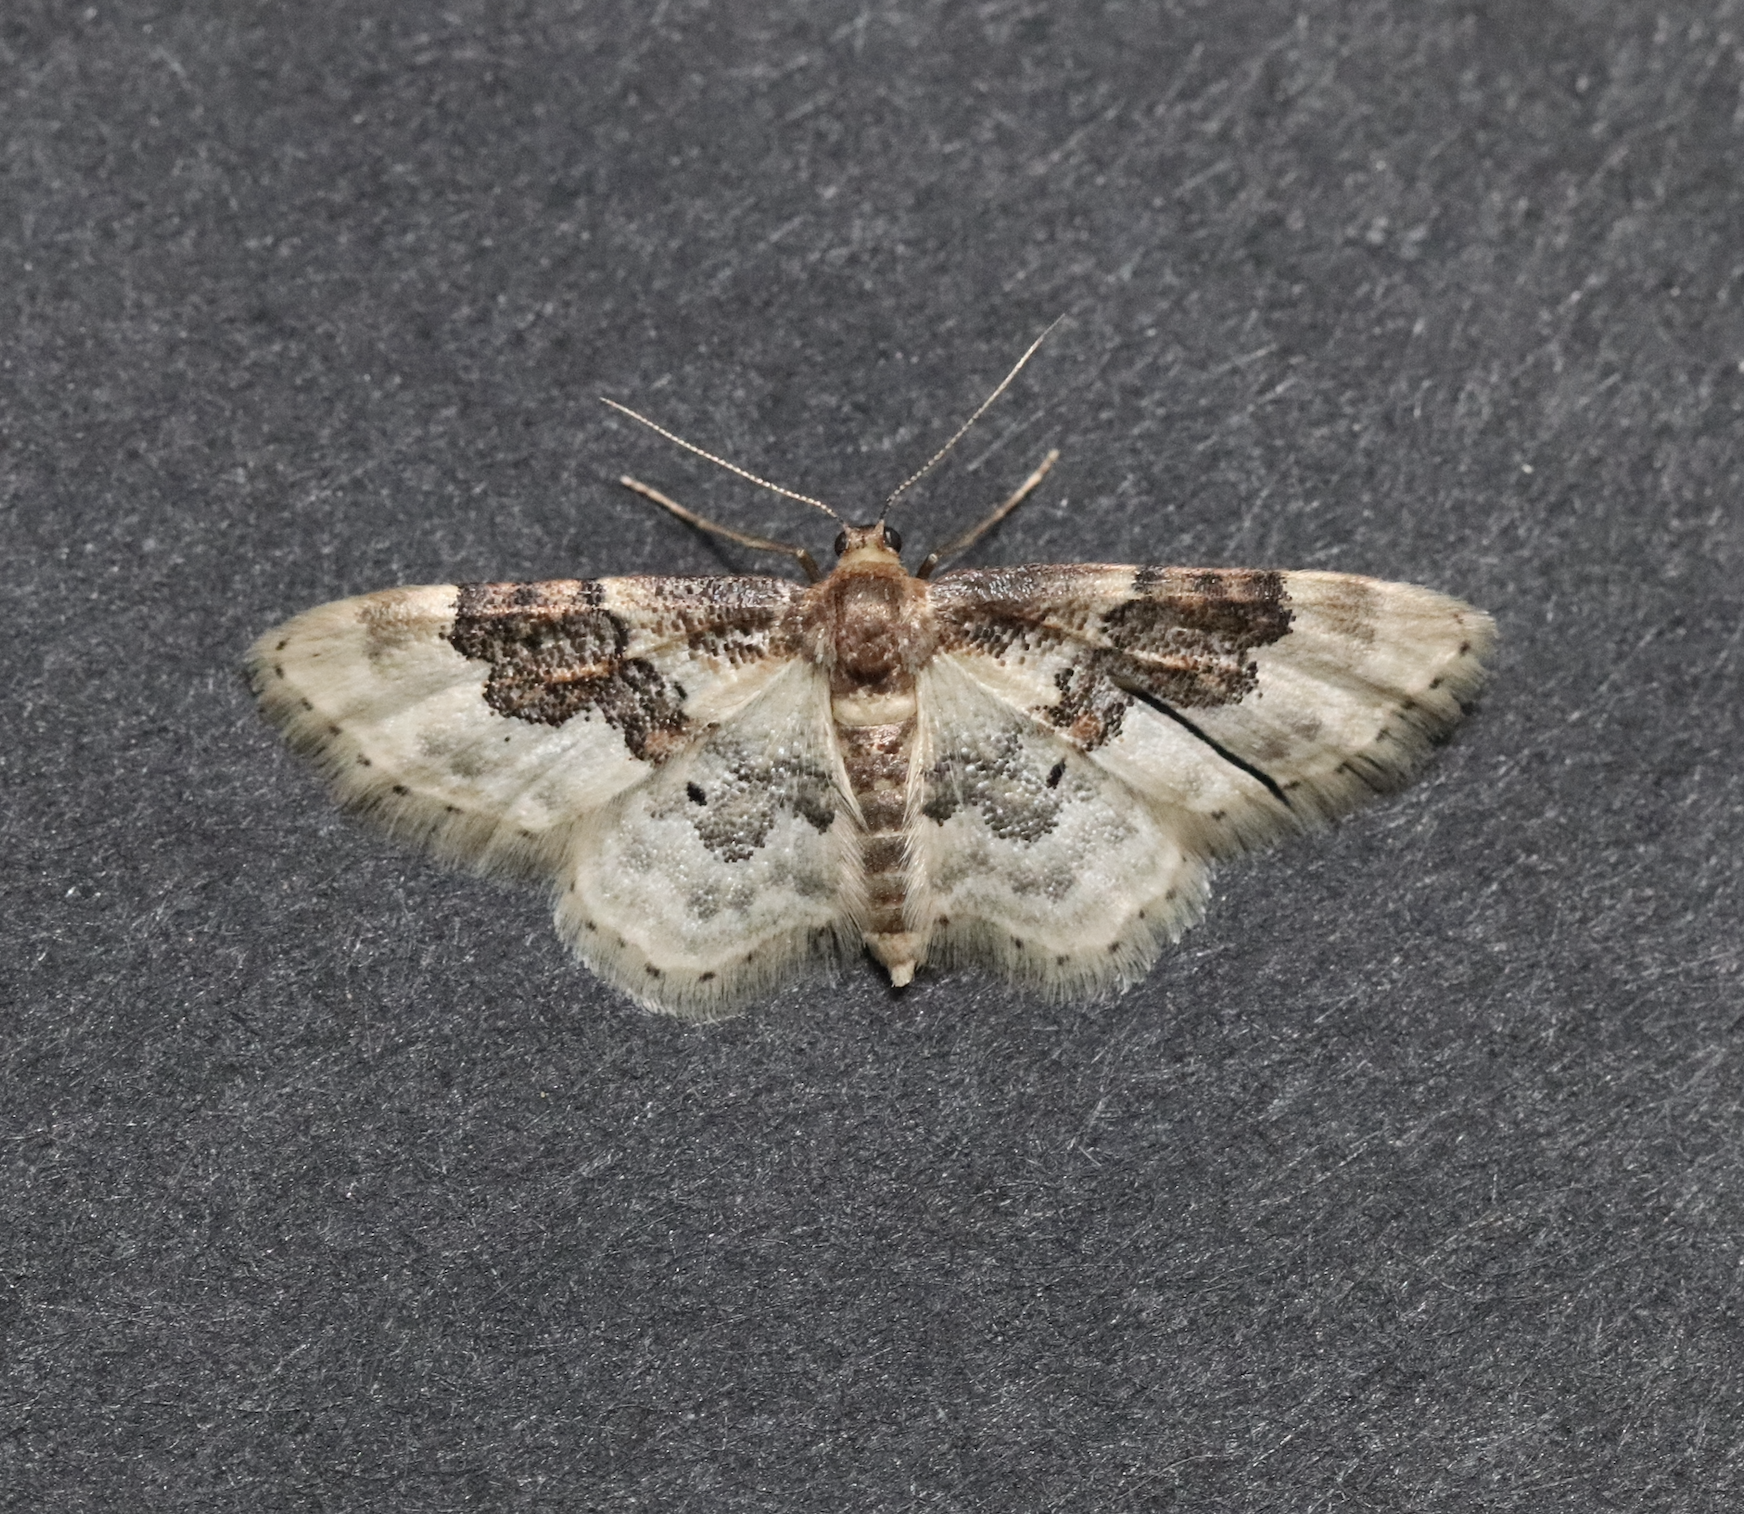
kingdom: Animalia
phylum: Arthropoda
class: Insecta
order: Lepidoptera
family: Geometridae
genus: Idaea
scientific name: Idaea rusticata
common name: Least carpet
